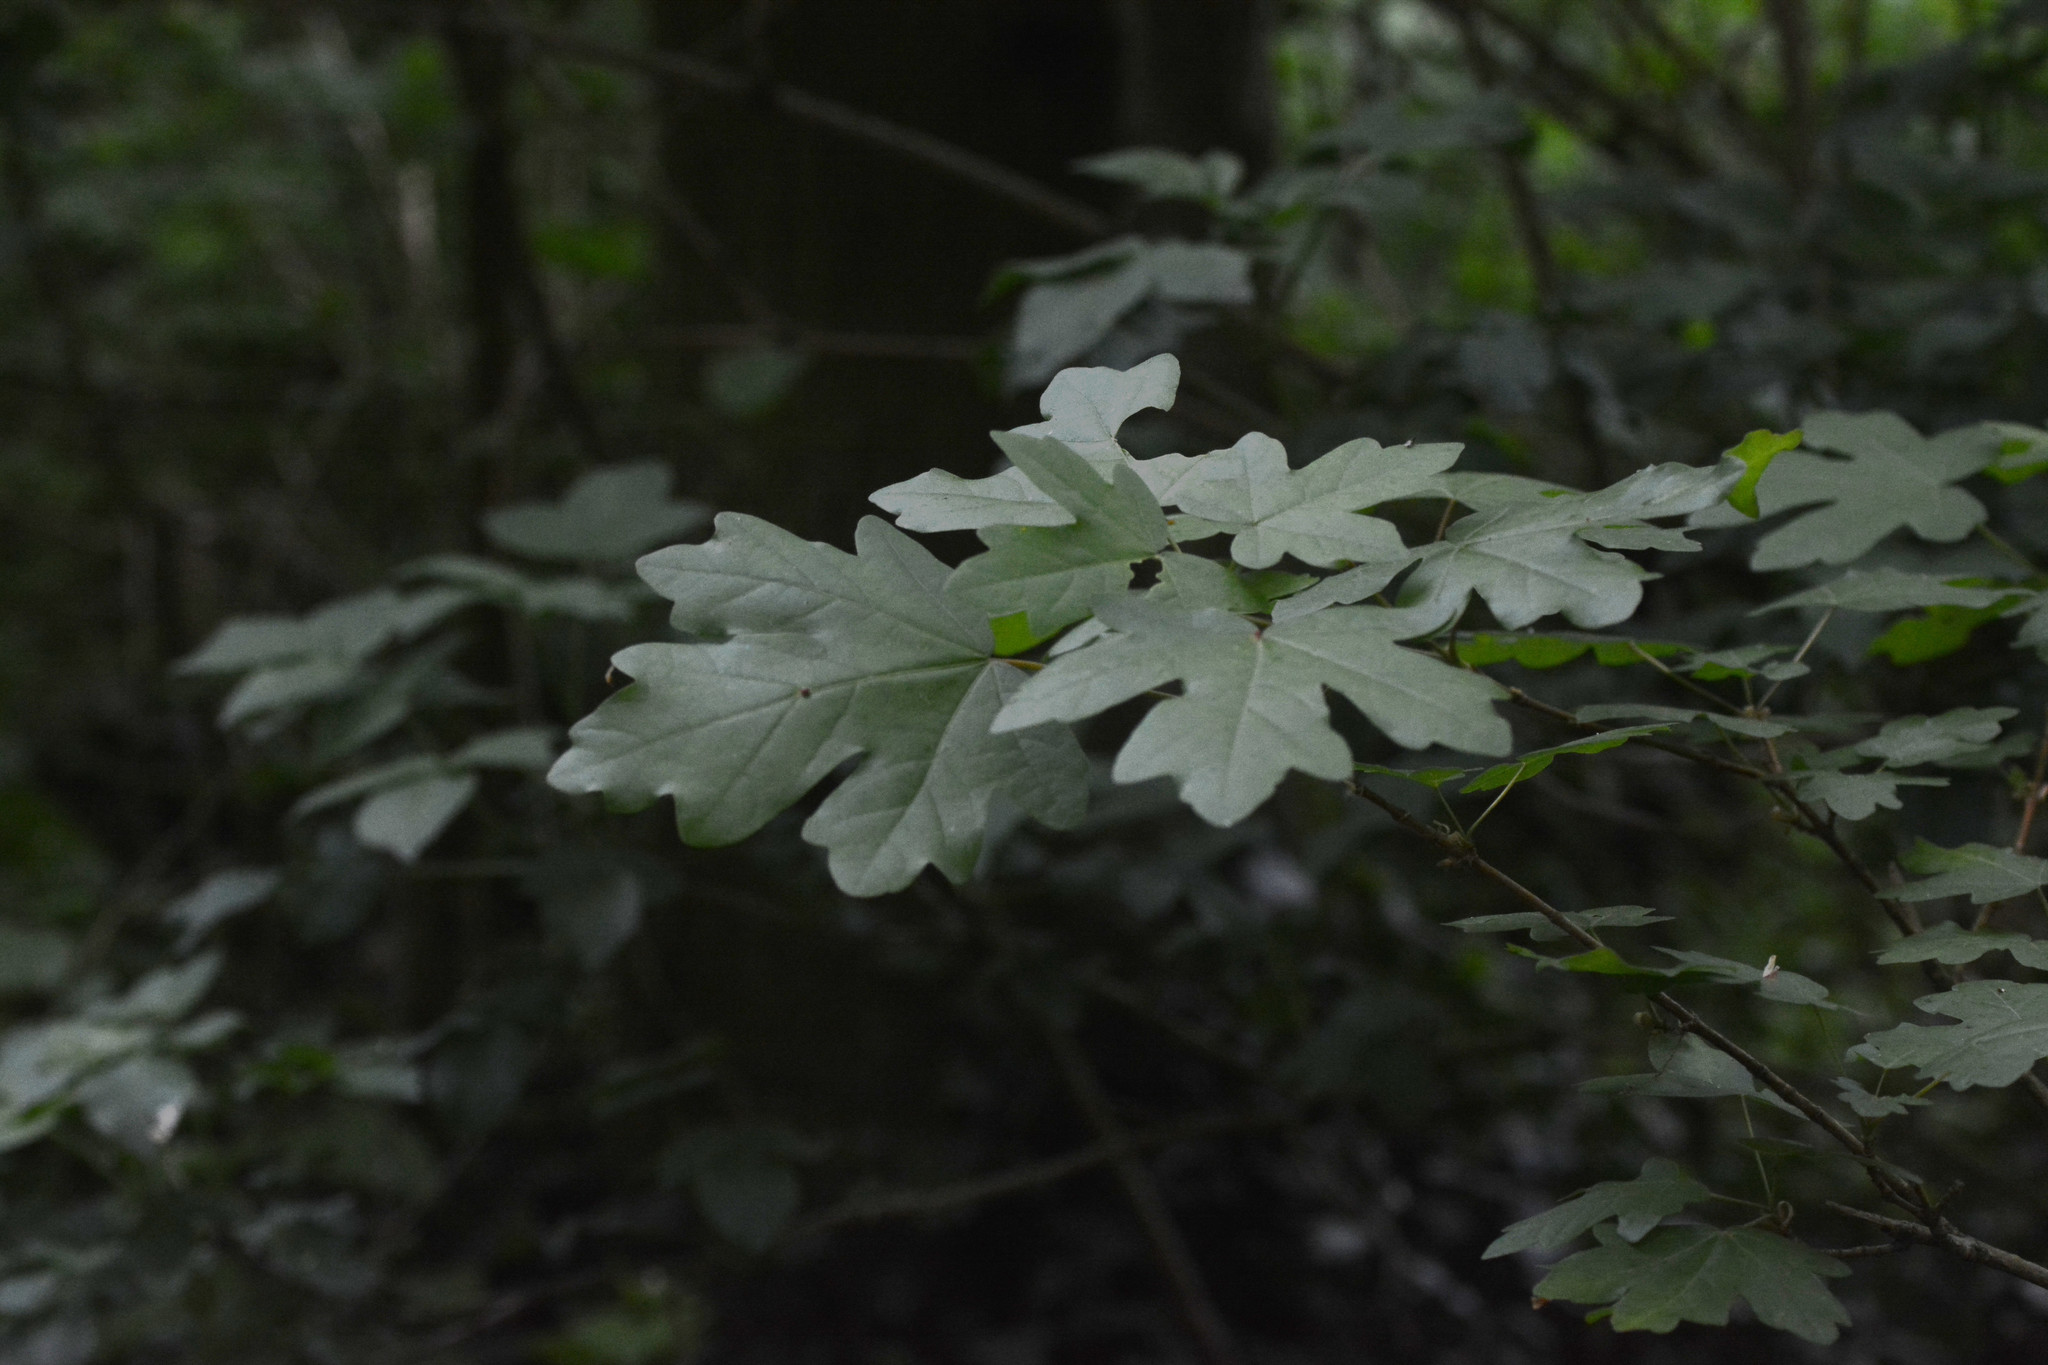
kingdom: Plantae
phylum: Tracheophyta
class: Magnoliopsida
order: Sapindales
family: Sapindaceae
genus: Acer
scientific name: Acer campestre
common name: Field maple
